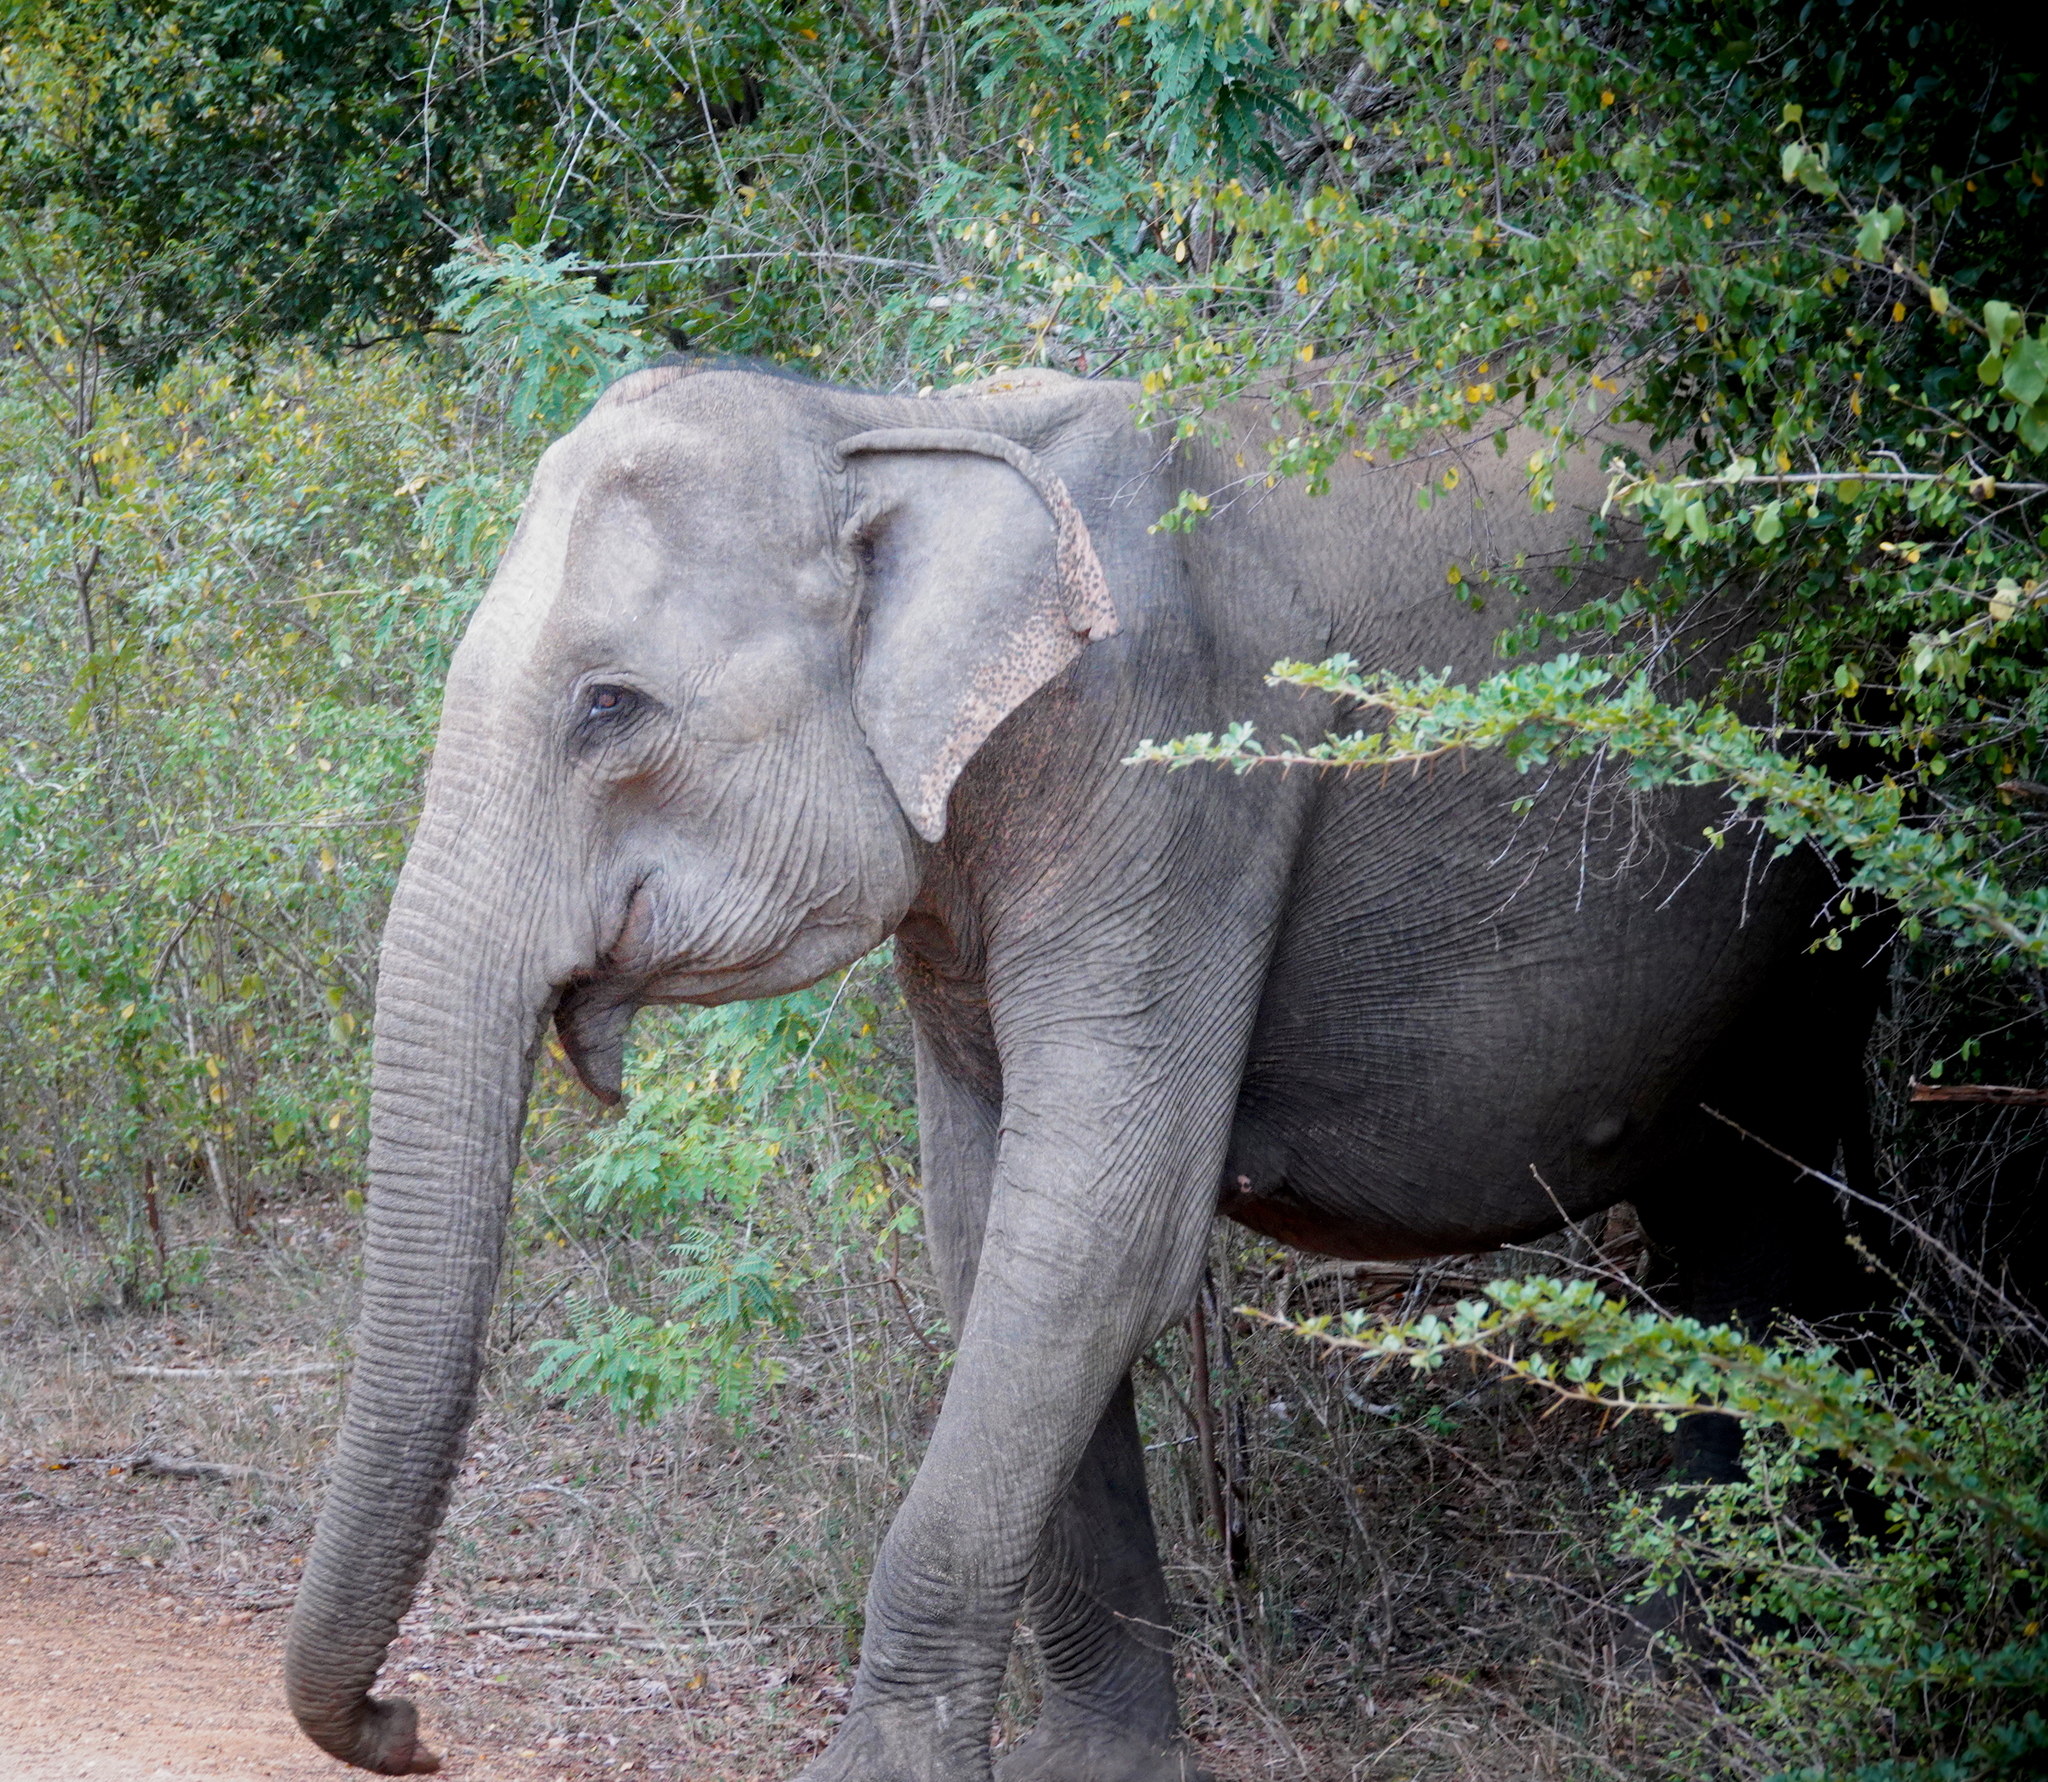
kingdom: Animalia
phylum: Chordata
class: Mammalia
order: Proboscidea
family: Elephantidae
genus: Elephas
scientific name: Elephas maximus
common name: Asian elephant
